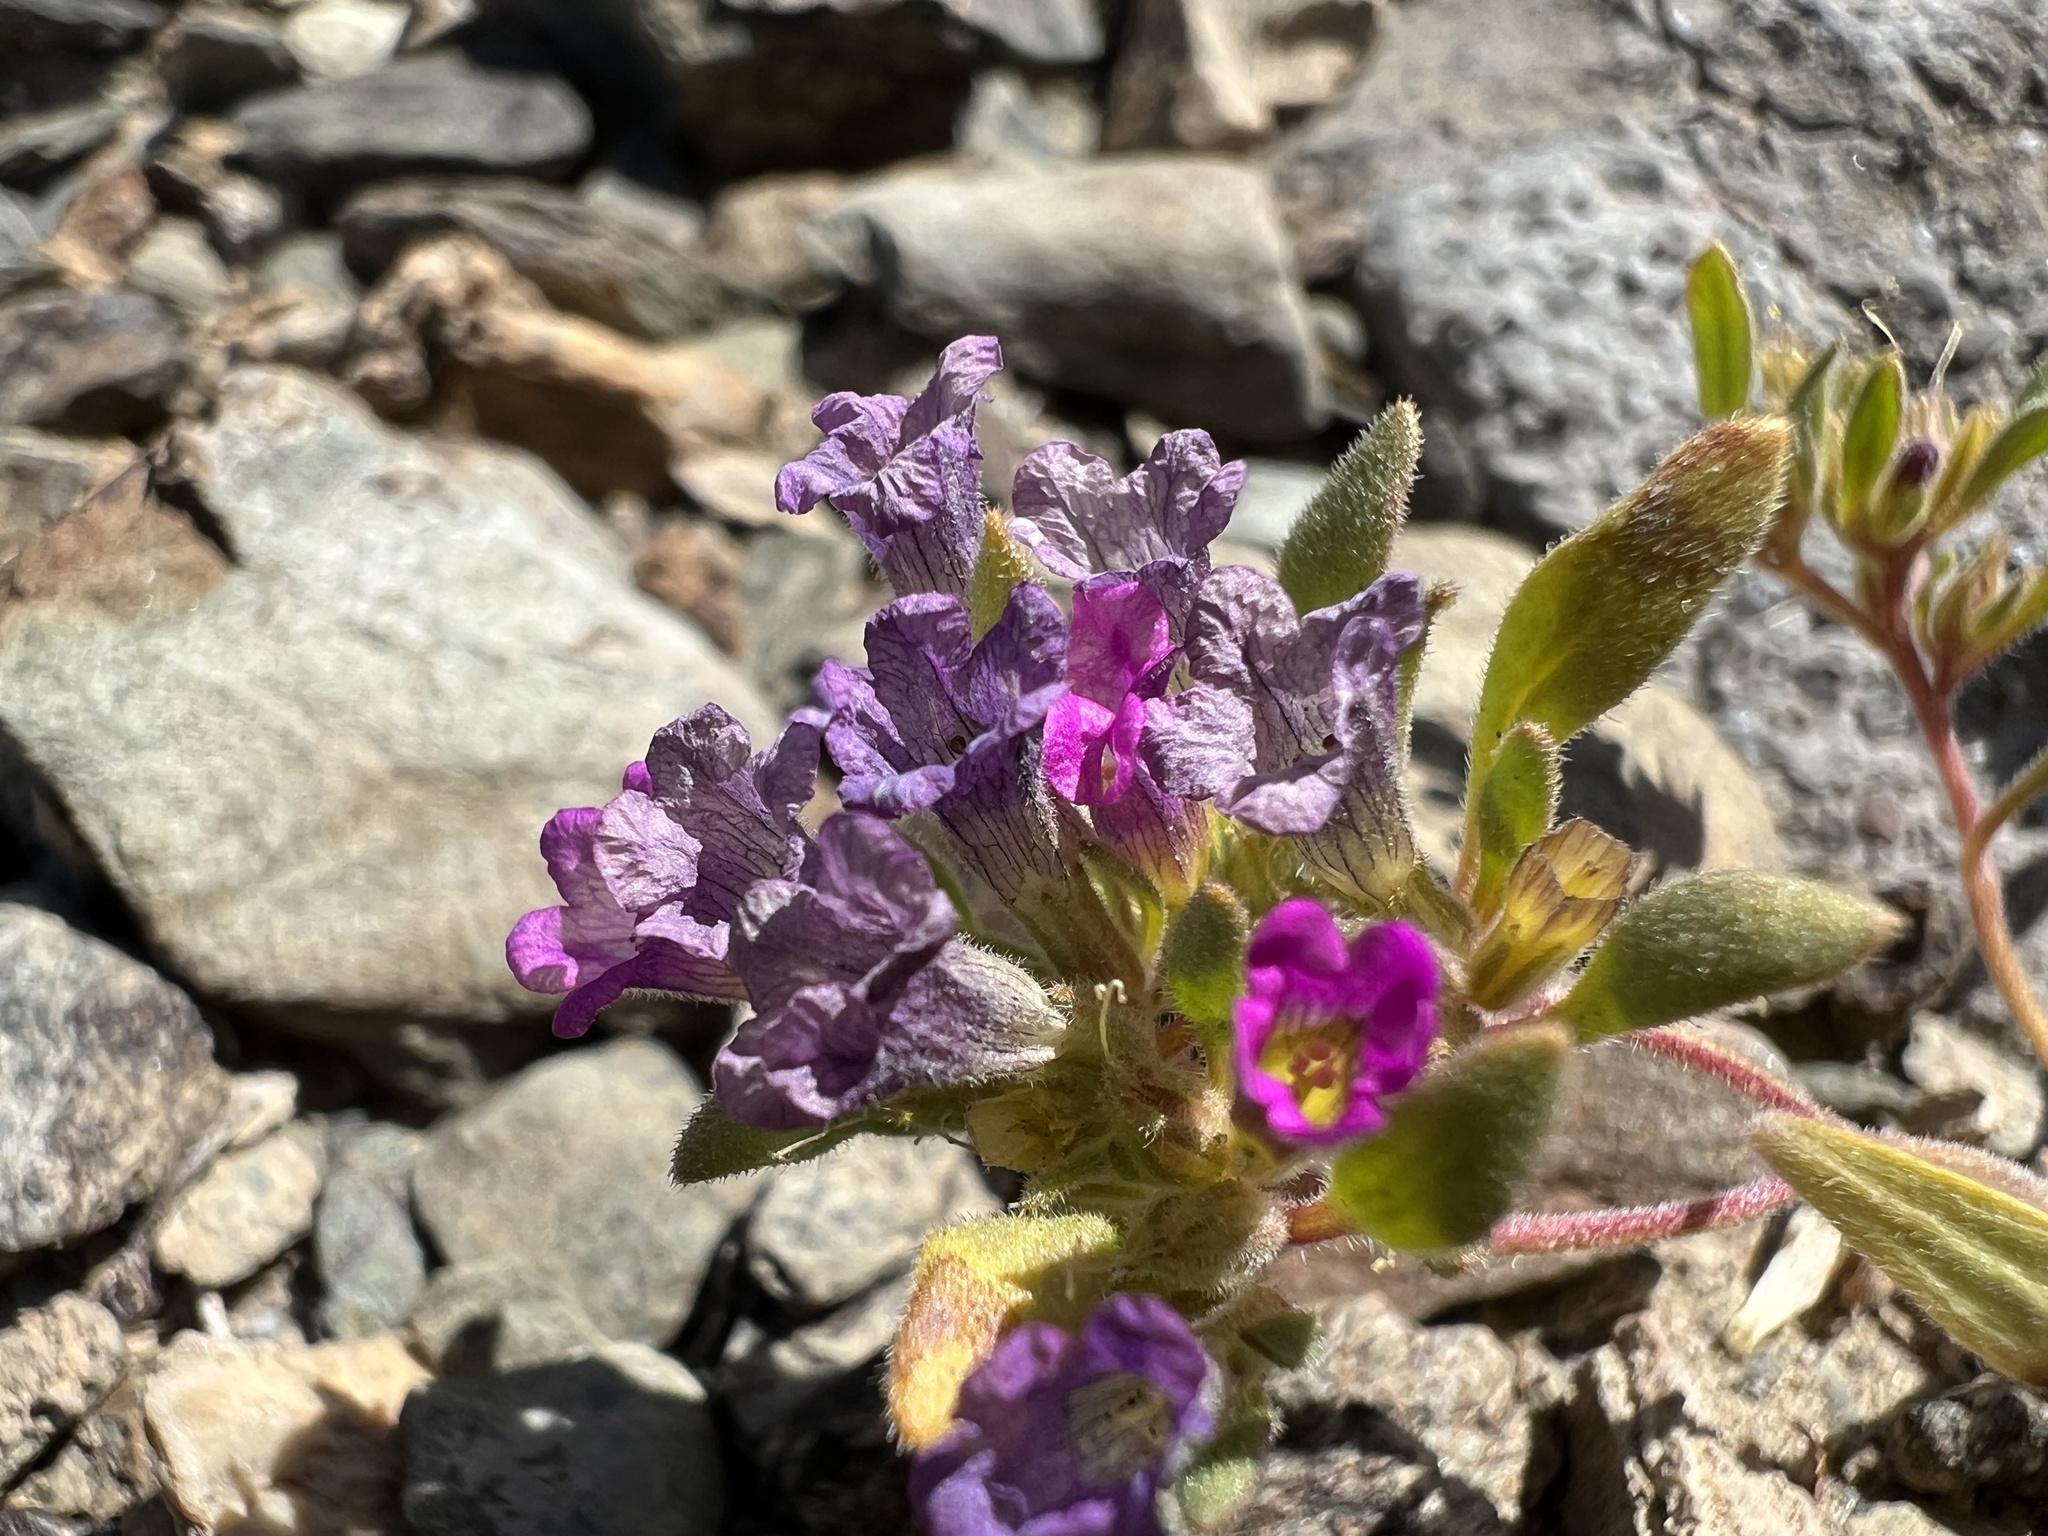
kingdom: Plantae
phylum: Tracheophyta
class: Magnoliopsida
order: Boraginales
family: Namaceae
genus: Nama
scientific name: Nama demissa
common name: Leafy nama
